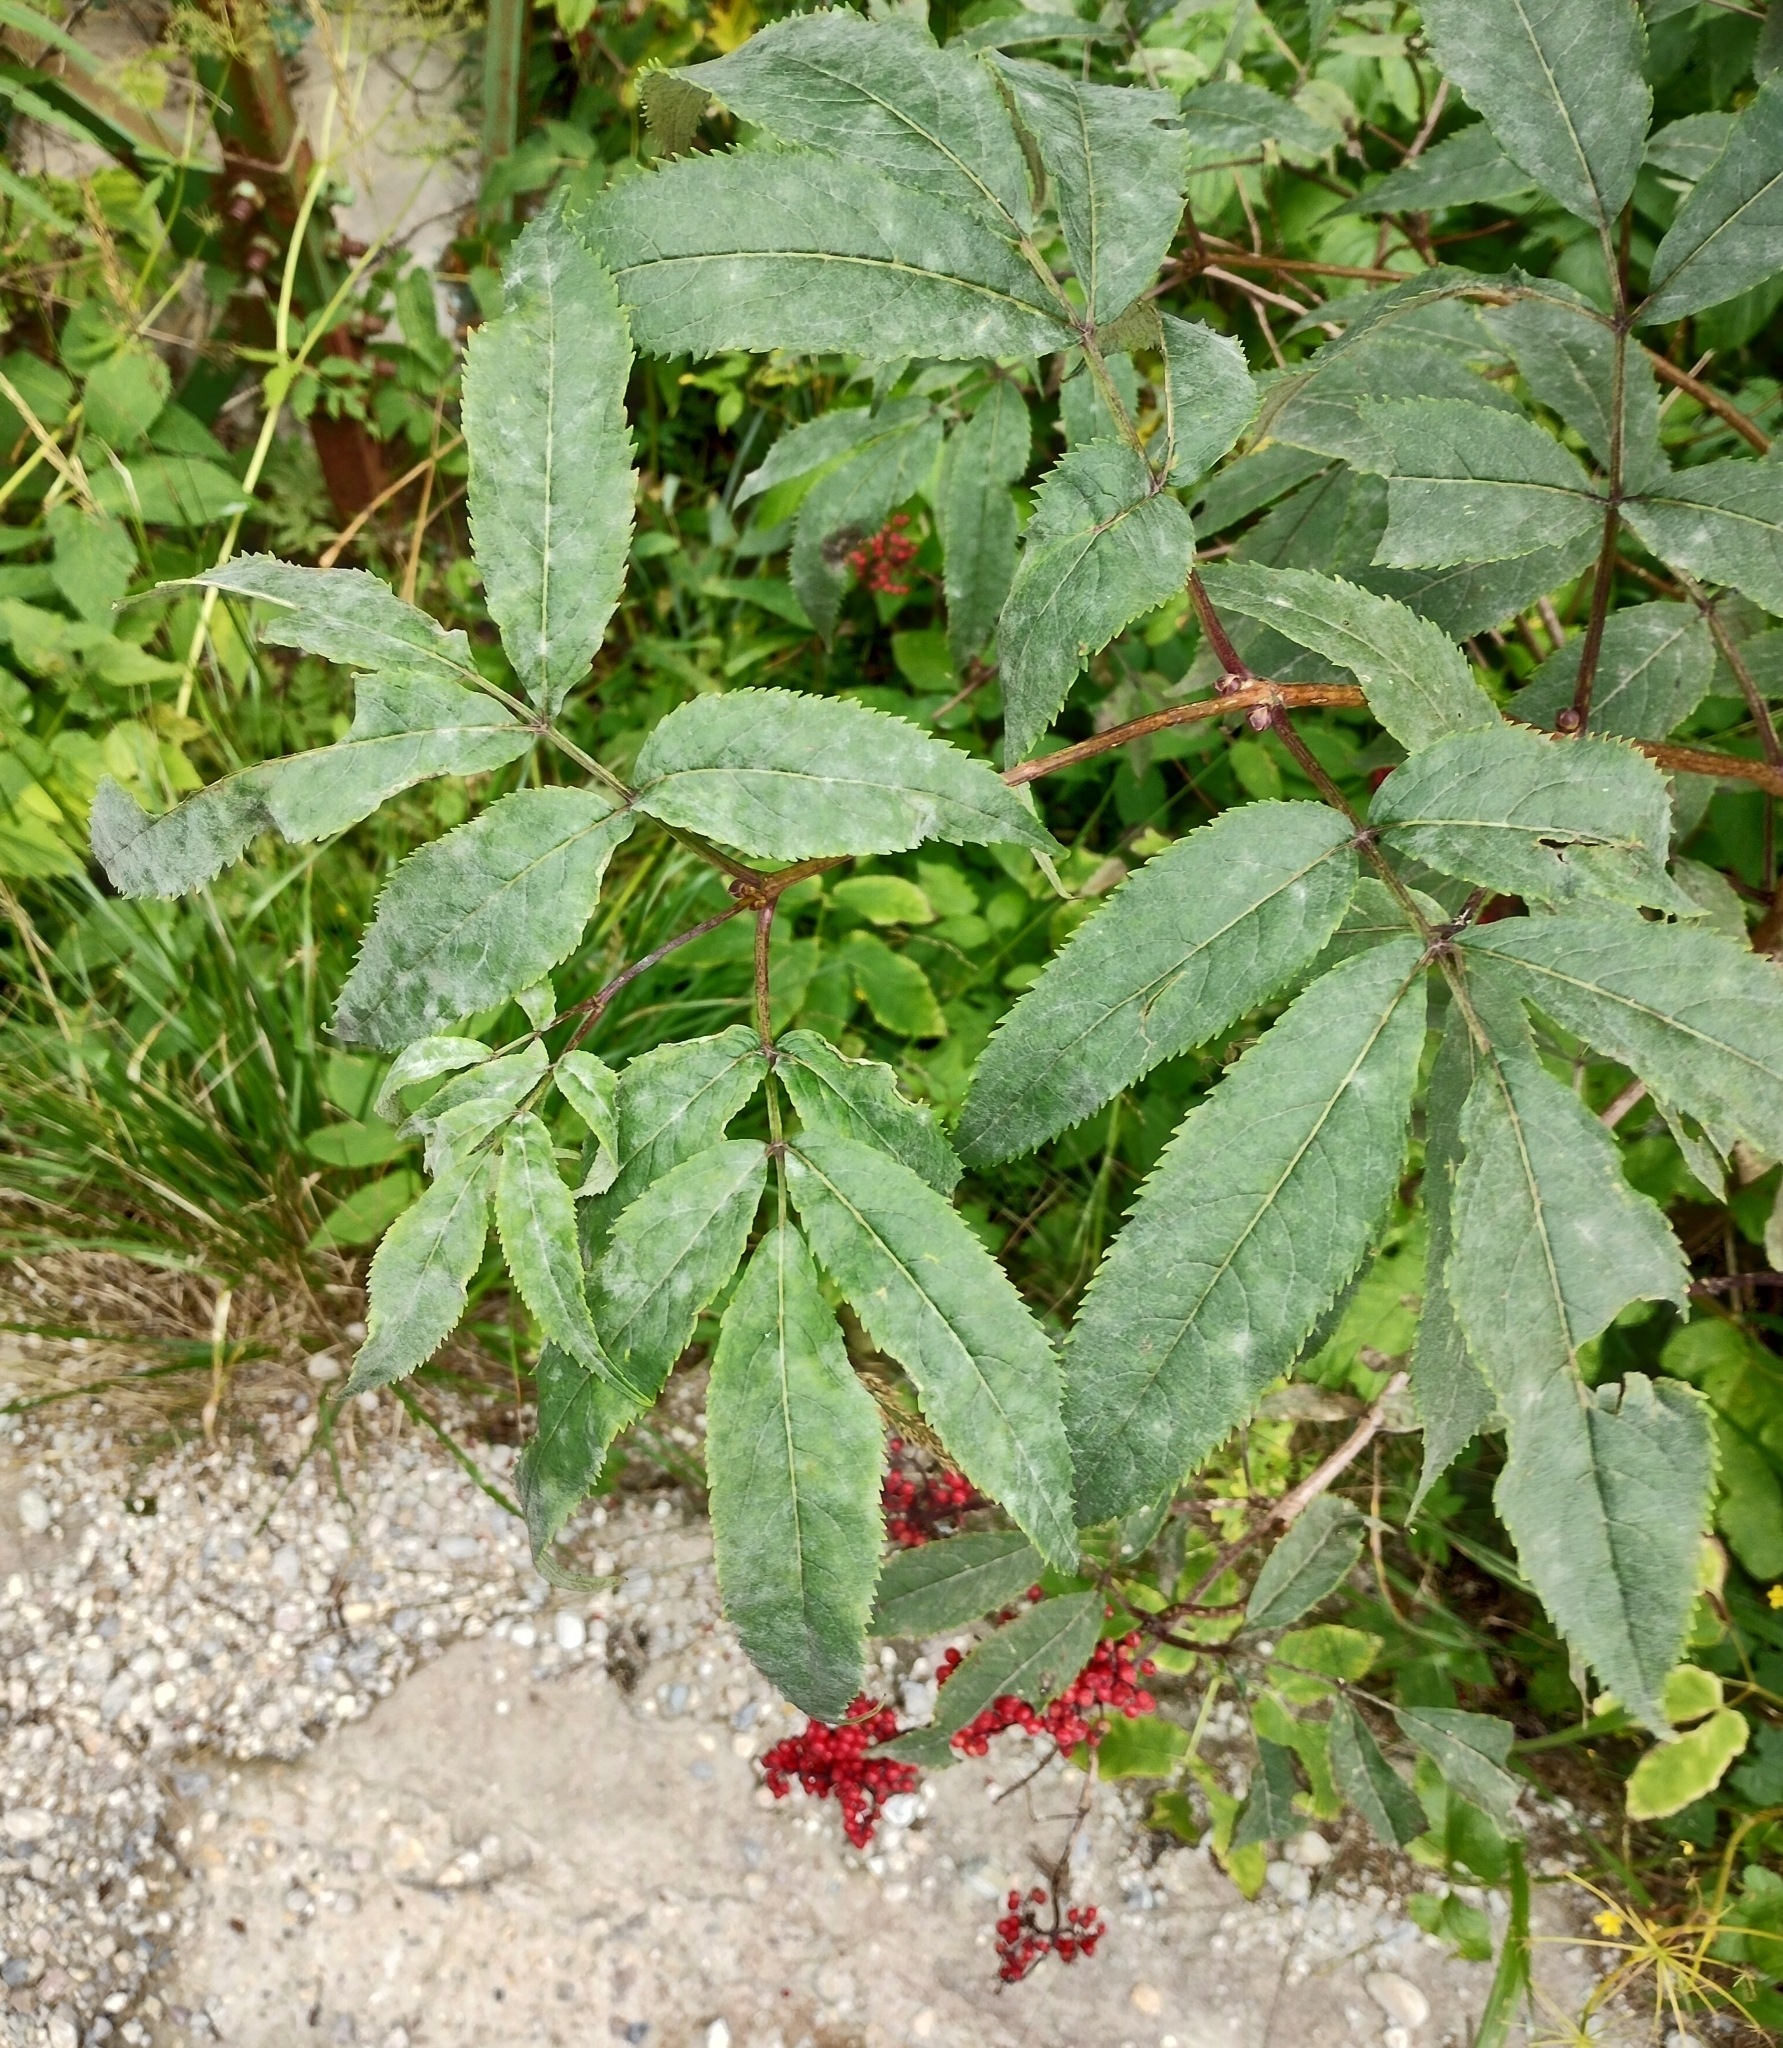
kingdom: Plantae
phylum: Tracheophyta
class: Magnoliopsida
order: Dipsacales
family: Viburnaceae
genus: Sambucus
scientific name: Sambucus racemosa
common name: Red-berried elder
